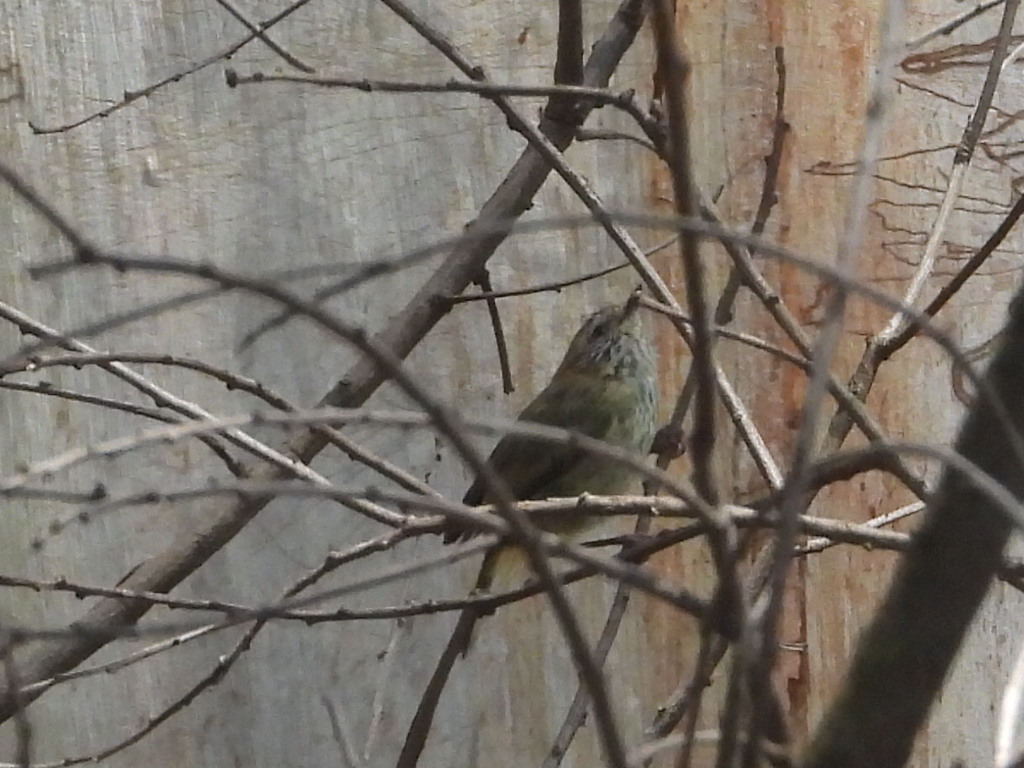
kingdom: Animalia
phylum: Chordata
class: Aves
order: Passeriformes
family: Acanthizidae
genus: Acanthiza
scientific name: Acanthiza lineata
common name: Striated thornbill
